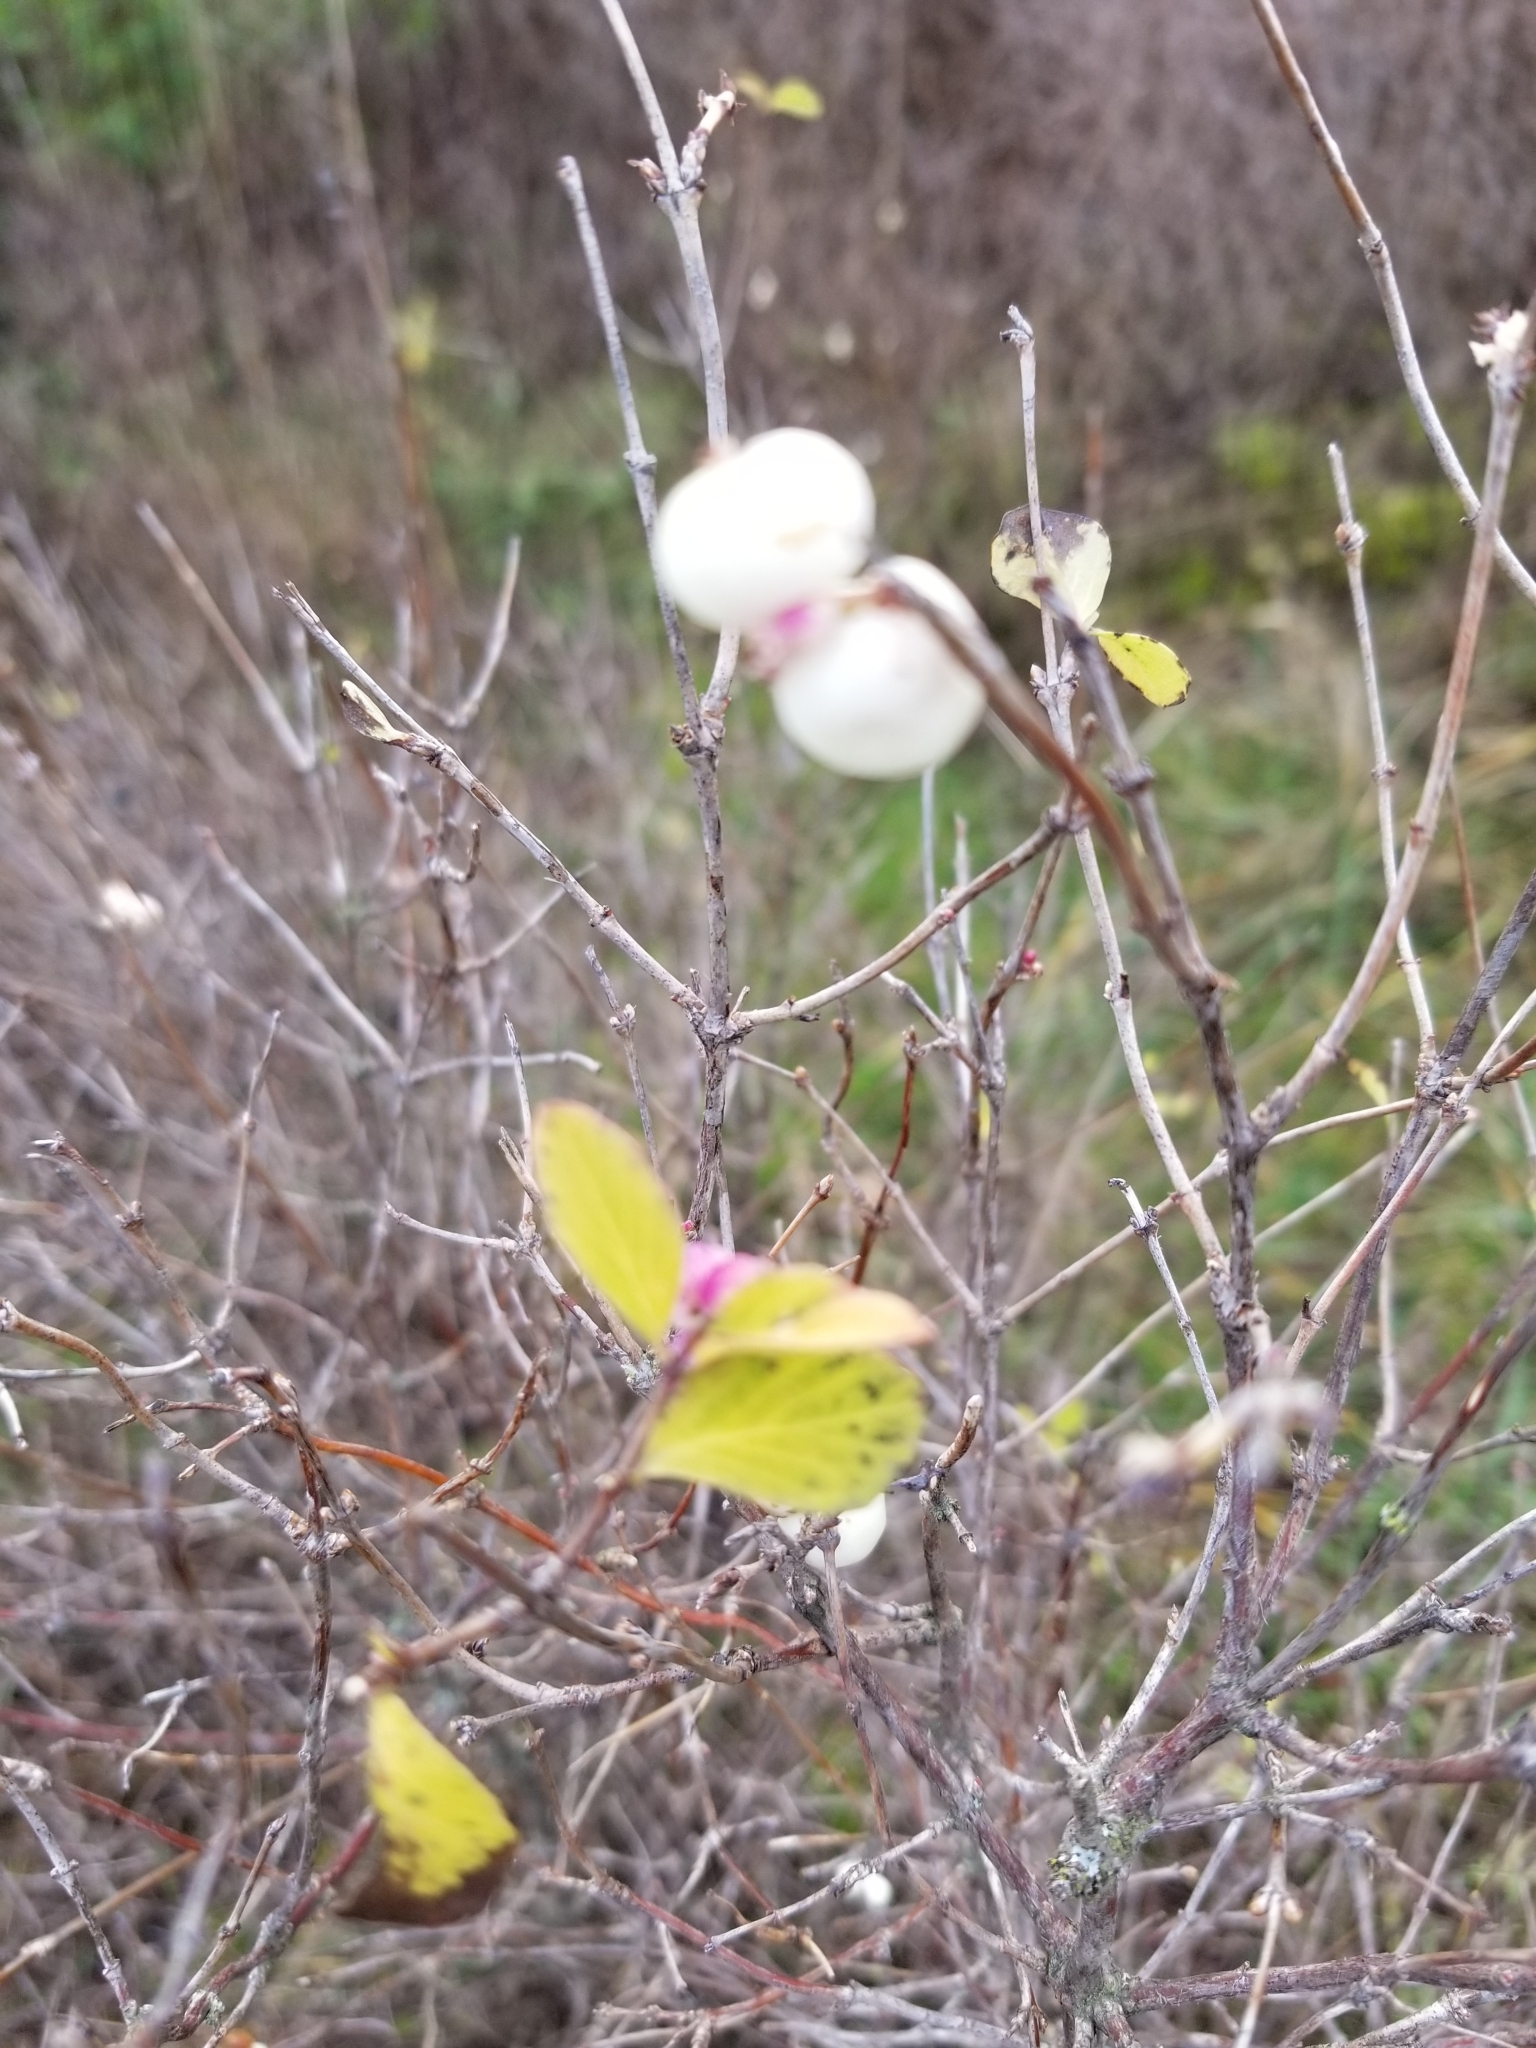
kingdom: Plantae
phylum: Tracheophyta
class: Magnoliopsida
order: Dipsacales
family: Caprifoliaceae
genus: Symphoricarpos
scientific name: Symphoricarpos albus
